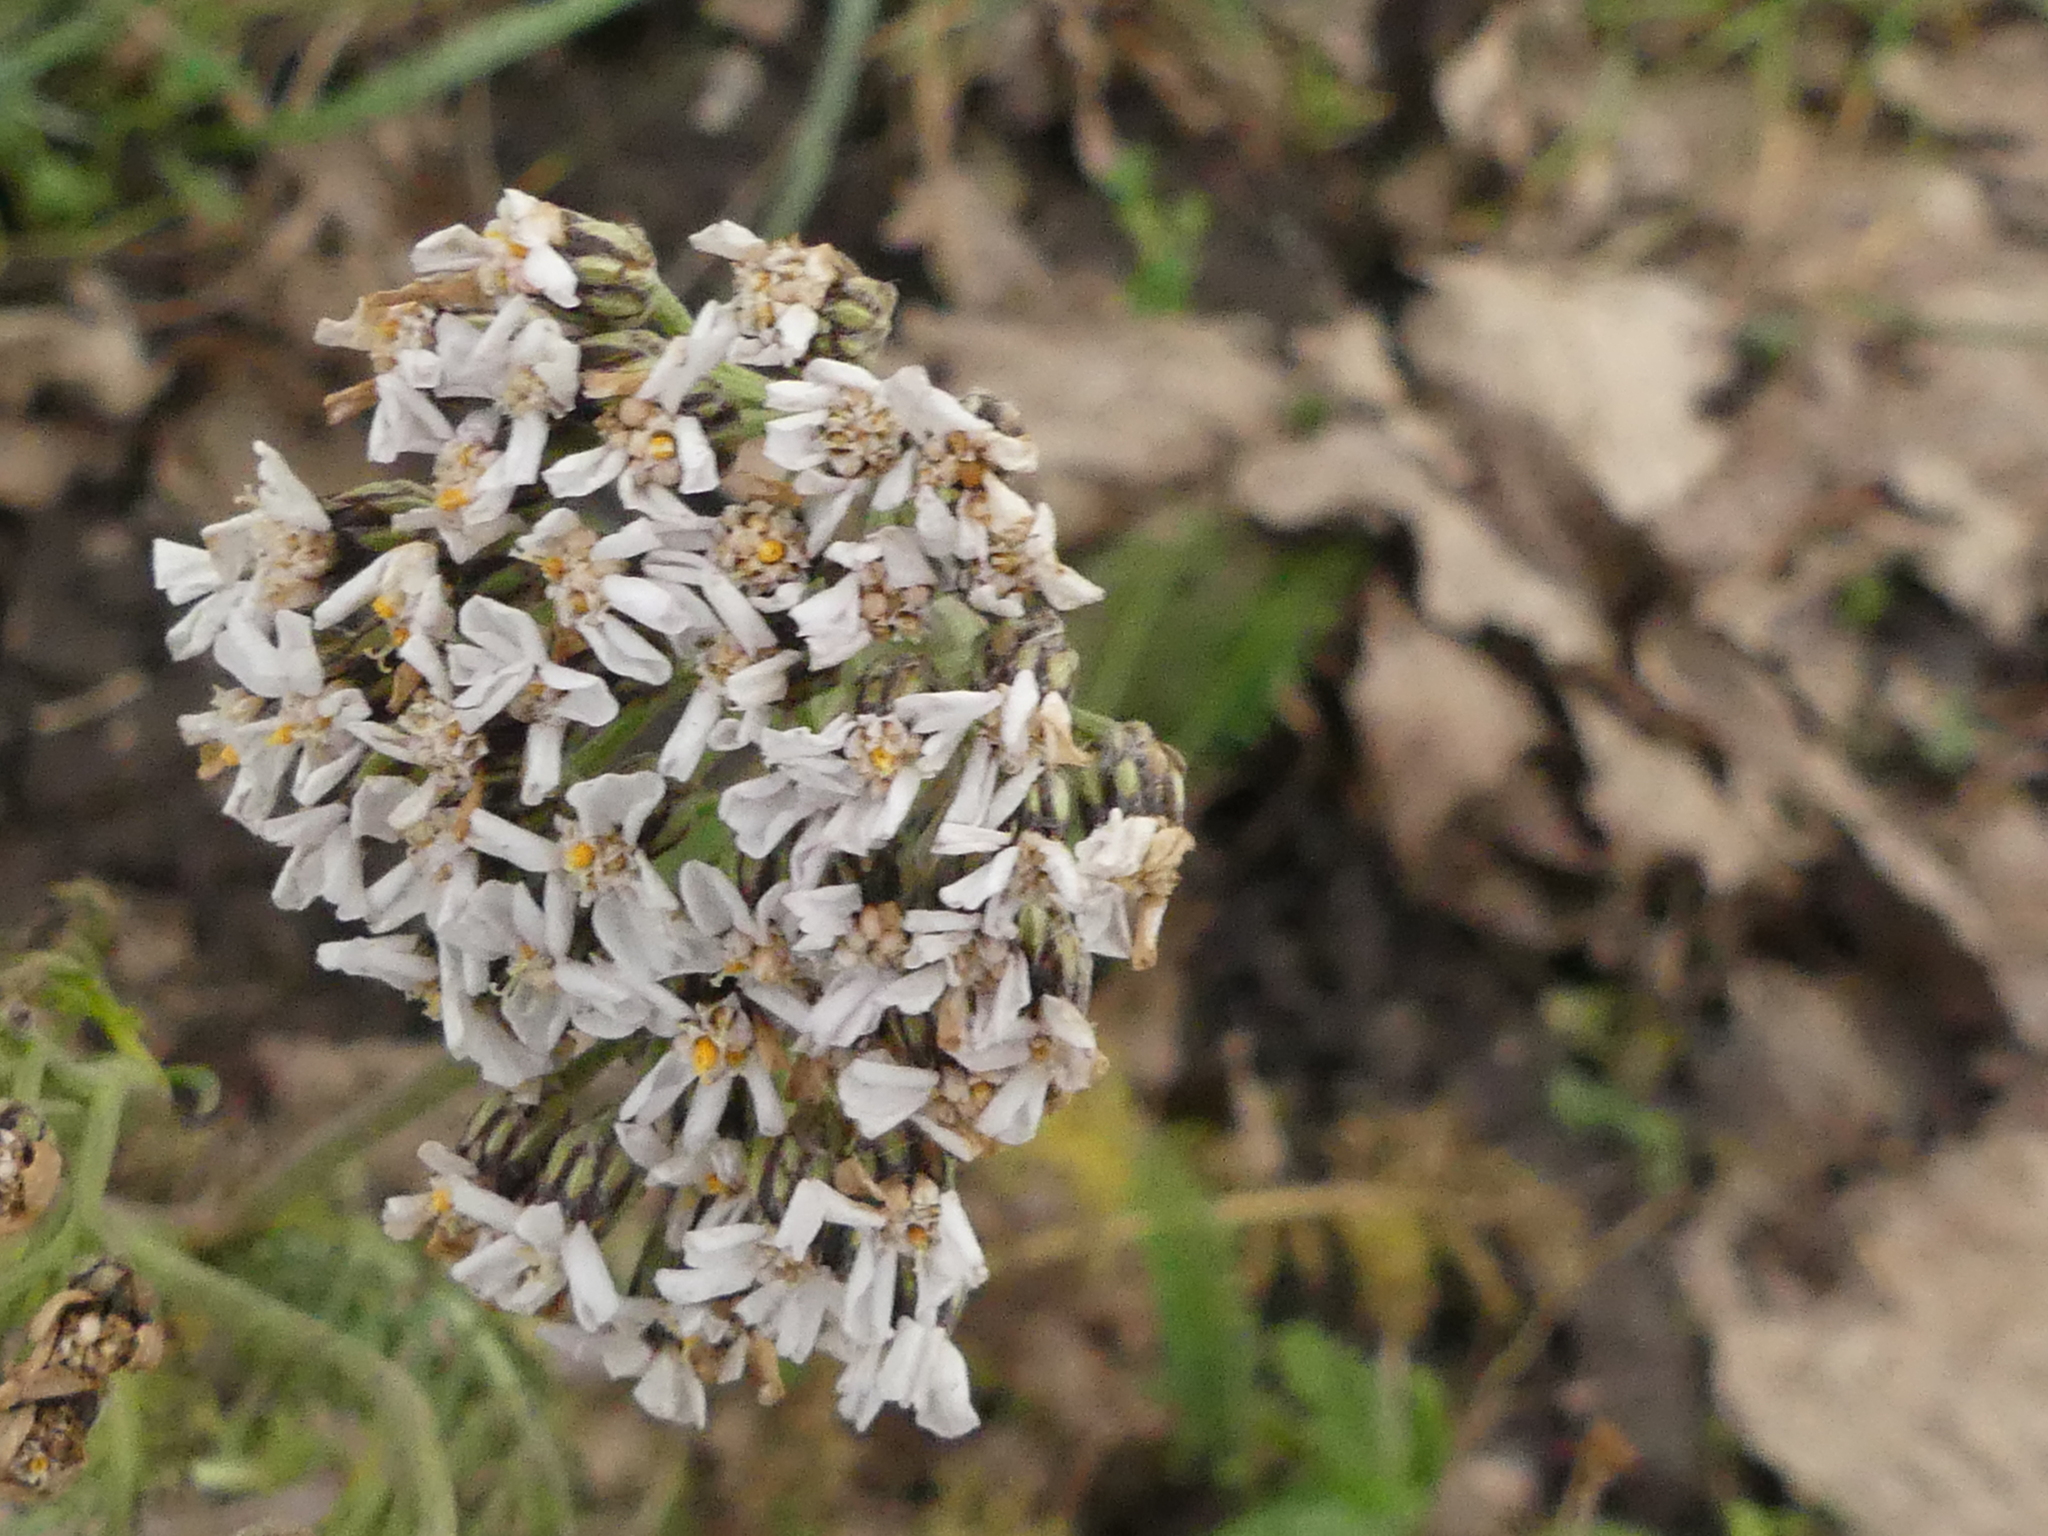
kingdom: Plantae
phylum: Tracheophyta
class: Magnoliopsida
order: Asterales
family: Asteraceae
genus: Achillea
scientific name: Achillea millefolium
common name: Yarrow
